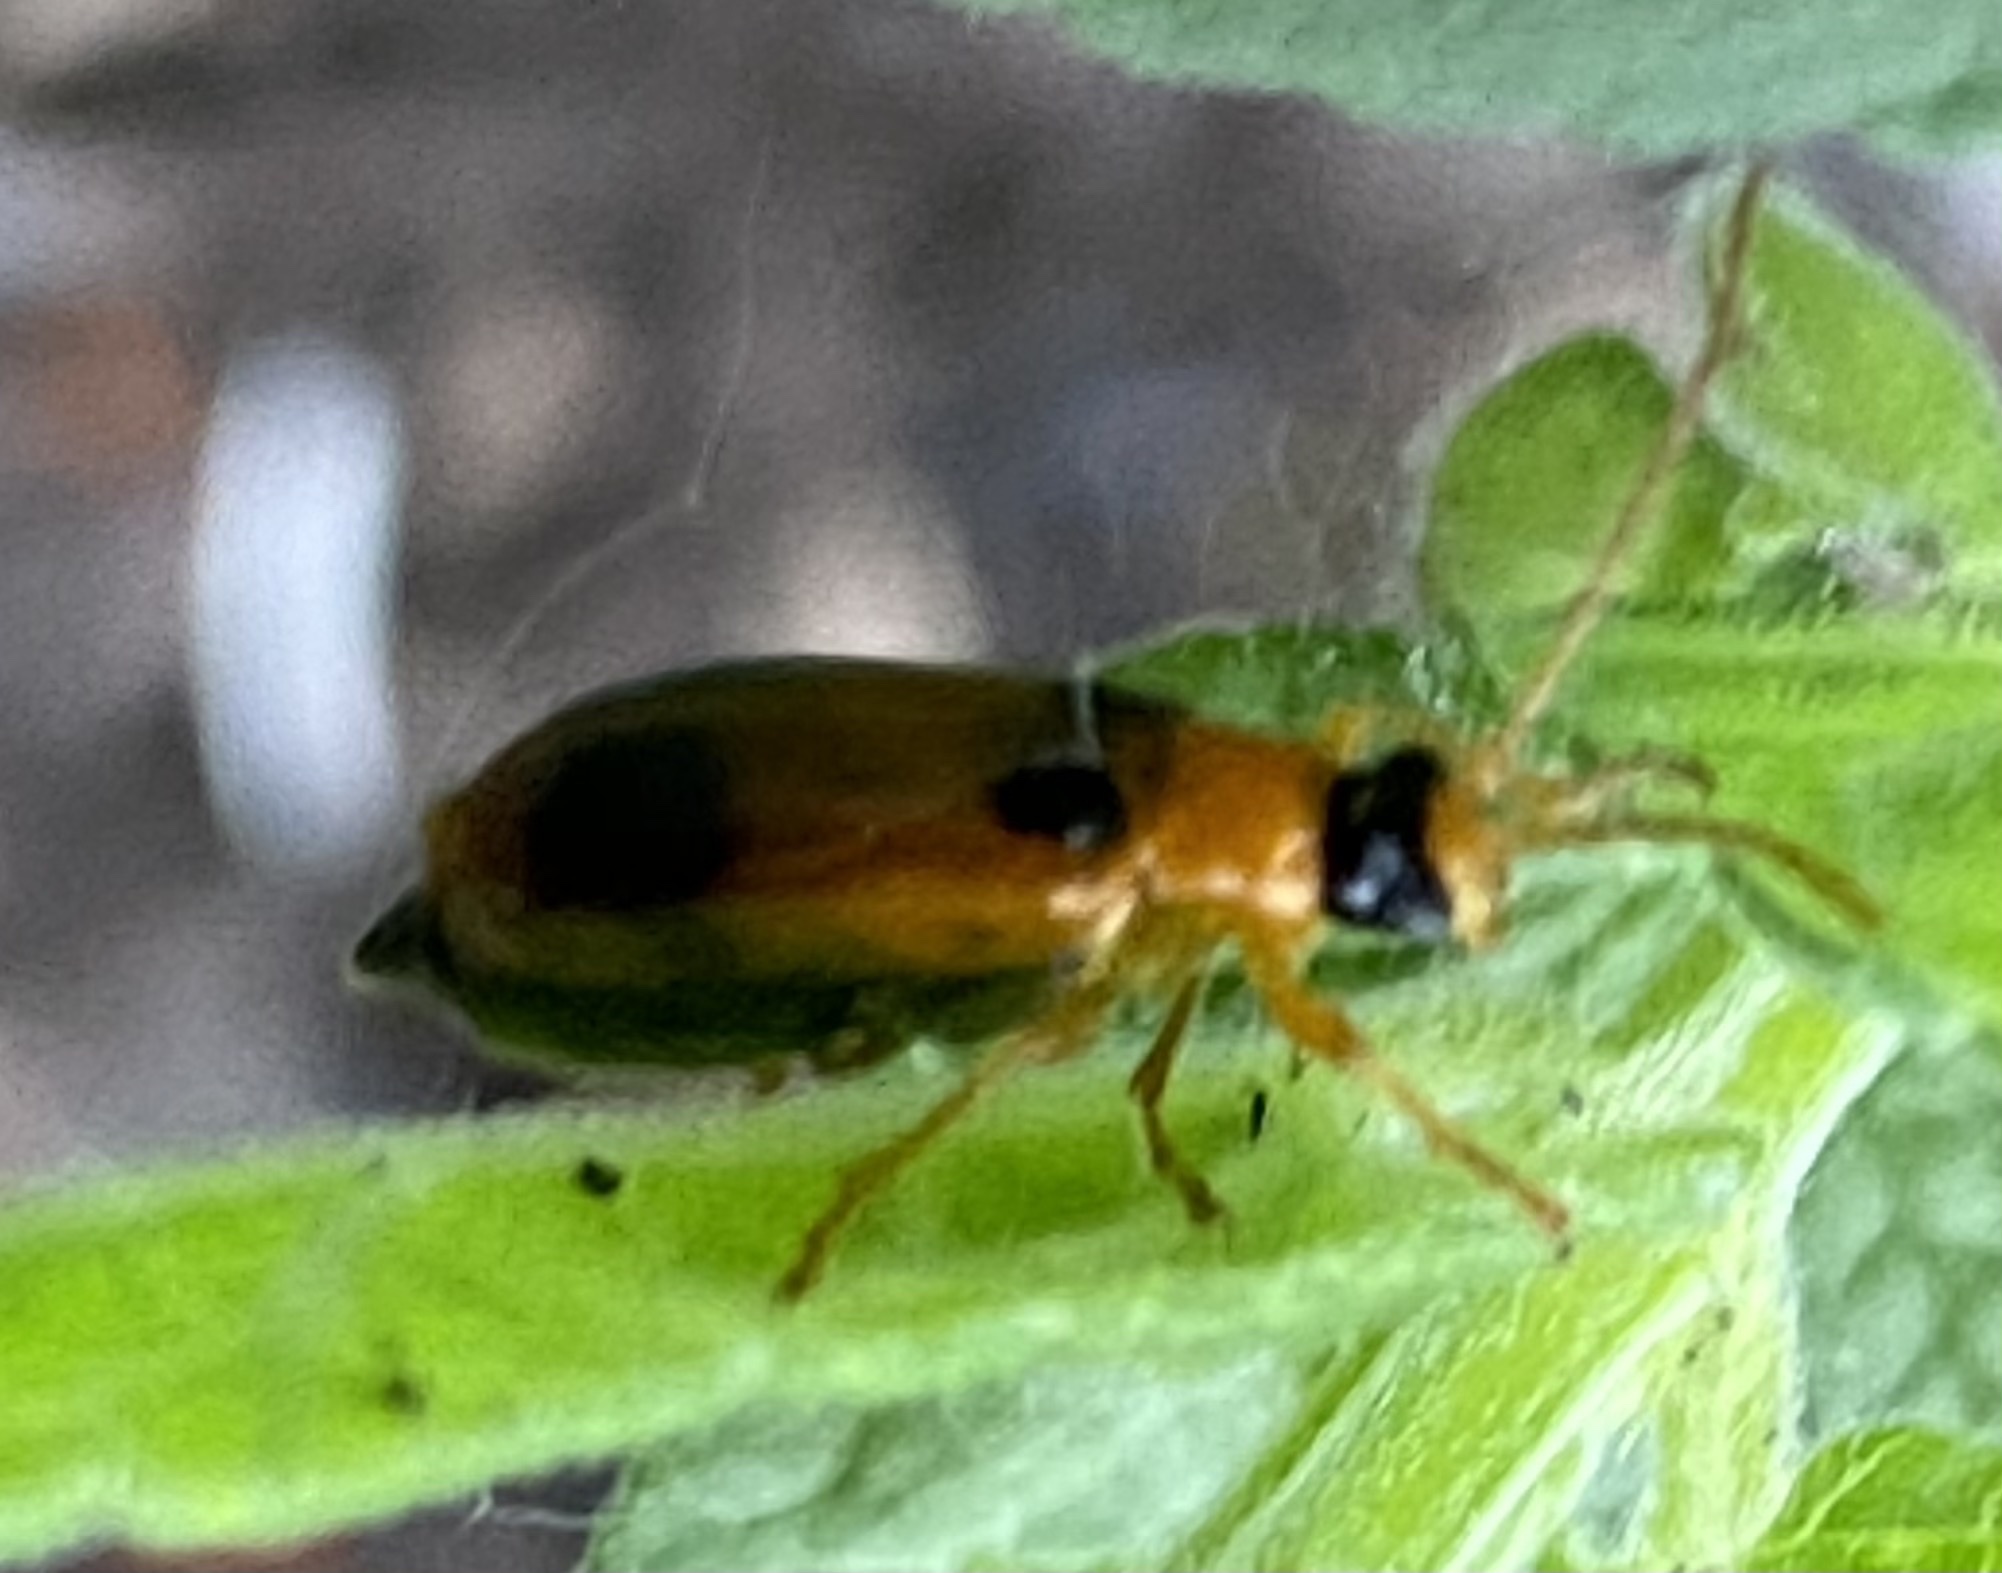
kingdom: Animalia
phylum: Arthropoda
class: Insecta
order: Coleoptera
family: Chrysomelidae
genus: Phyllobrotica
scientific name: Phyllobrotica quadrimaculata
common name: Skullcap leaf beetle
